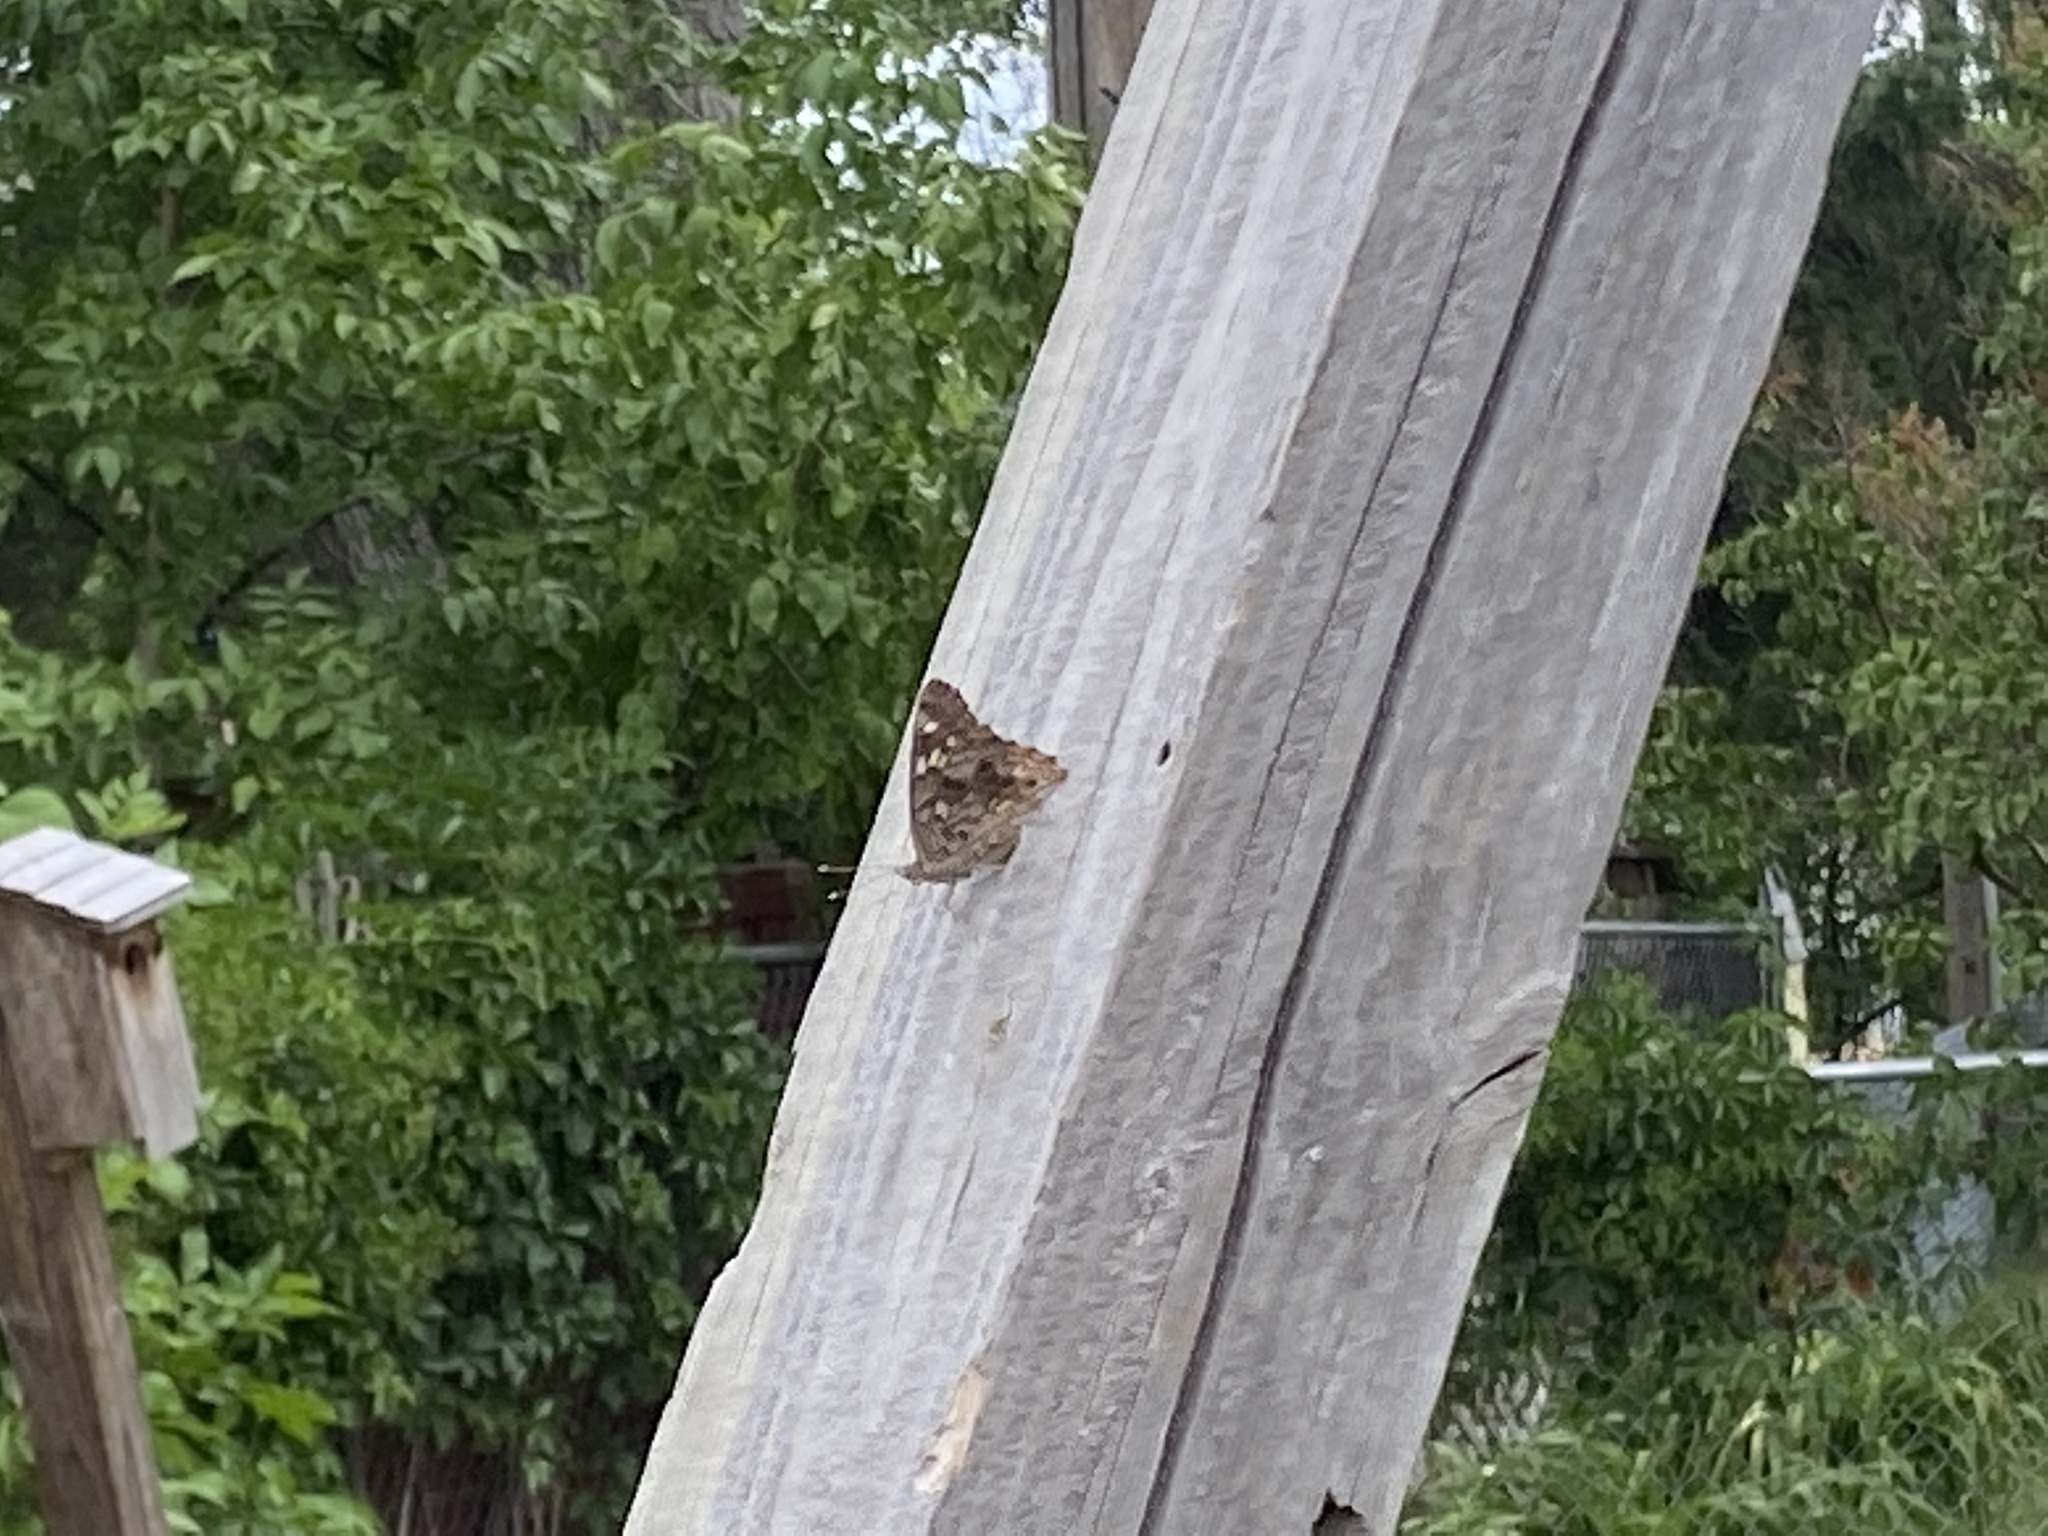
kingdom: Animalia
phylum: Arthropoda
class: Insecta
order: Lepidoptera
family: Nymphalidae
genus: Asterocampa
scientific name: Asterocampa celtis
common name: Hackberry emperor
